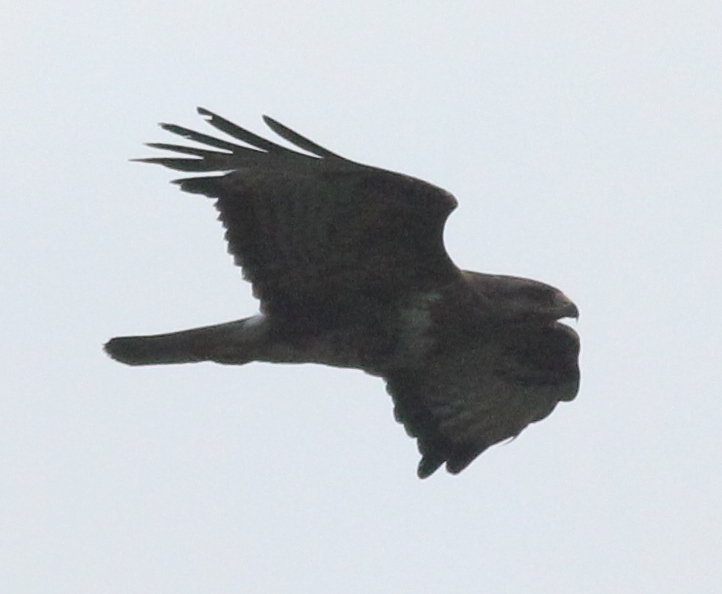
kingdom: Animalia
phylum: Chordata
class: Aves
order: Accipitriformes
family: Accipitridae
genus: Buteo
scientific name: Buteo buteo
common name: Common buzzard
